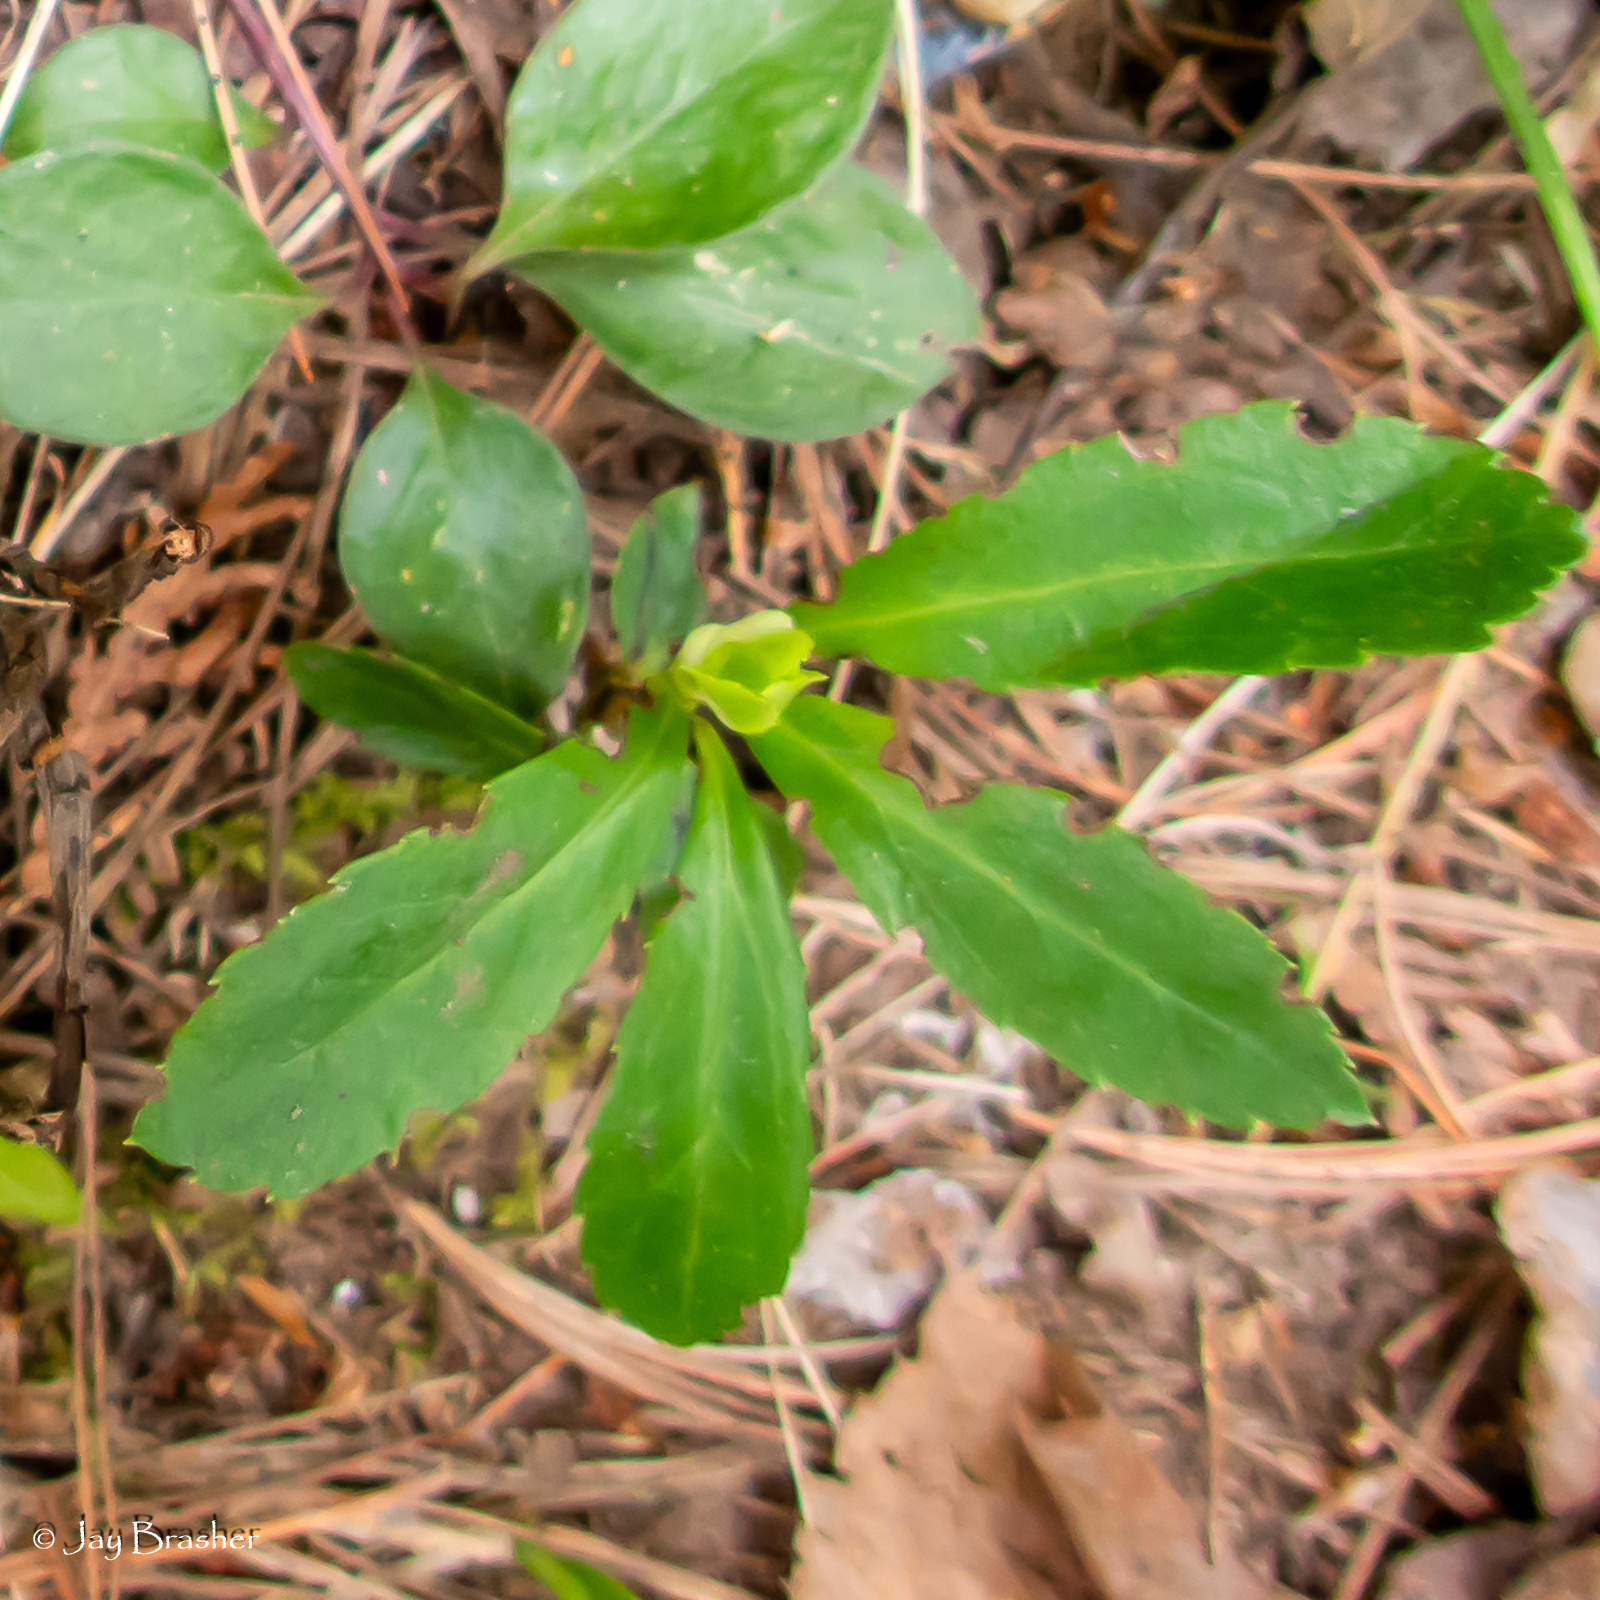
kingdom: Plantae
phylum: Tracheophyta
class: Magnoliopsida
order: Ericales
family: Ericaceae
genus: Chimaphila
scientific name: Chimaphila umbellata
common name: Pipsissewa
